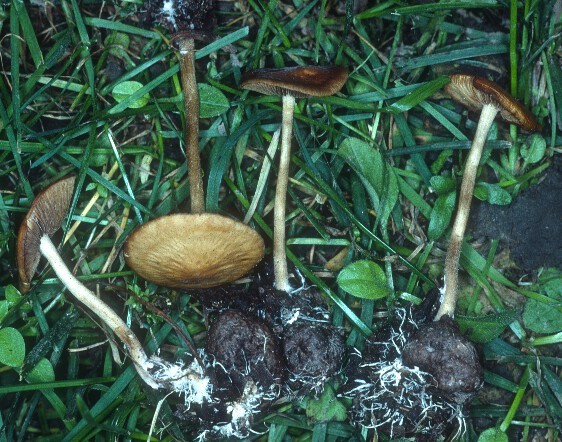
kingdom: Fungi
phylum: Basidiomycota
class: Agaricomycetes
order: Agaricales
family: Strophariaceae
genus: Agrocybe
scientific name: Agrocybe arvalis
